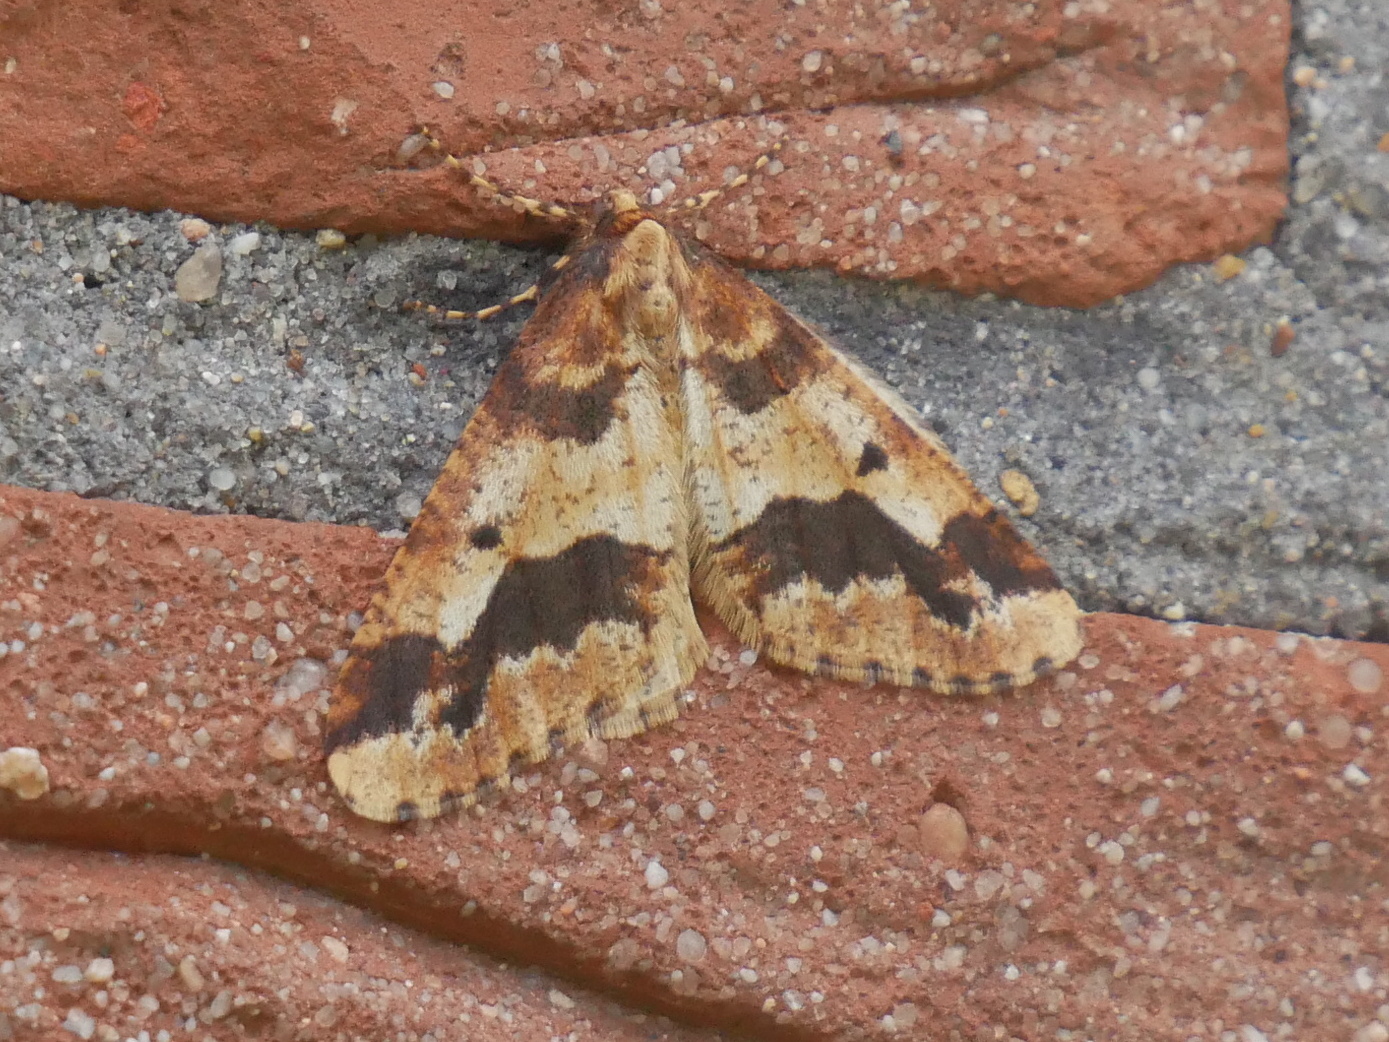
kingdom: Animalia
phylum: Arthropoda
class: Insecta
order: Lepidoptera
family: Geometridae
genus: Erannis
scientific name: Erannis defoliaria
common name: Mottled umber
